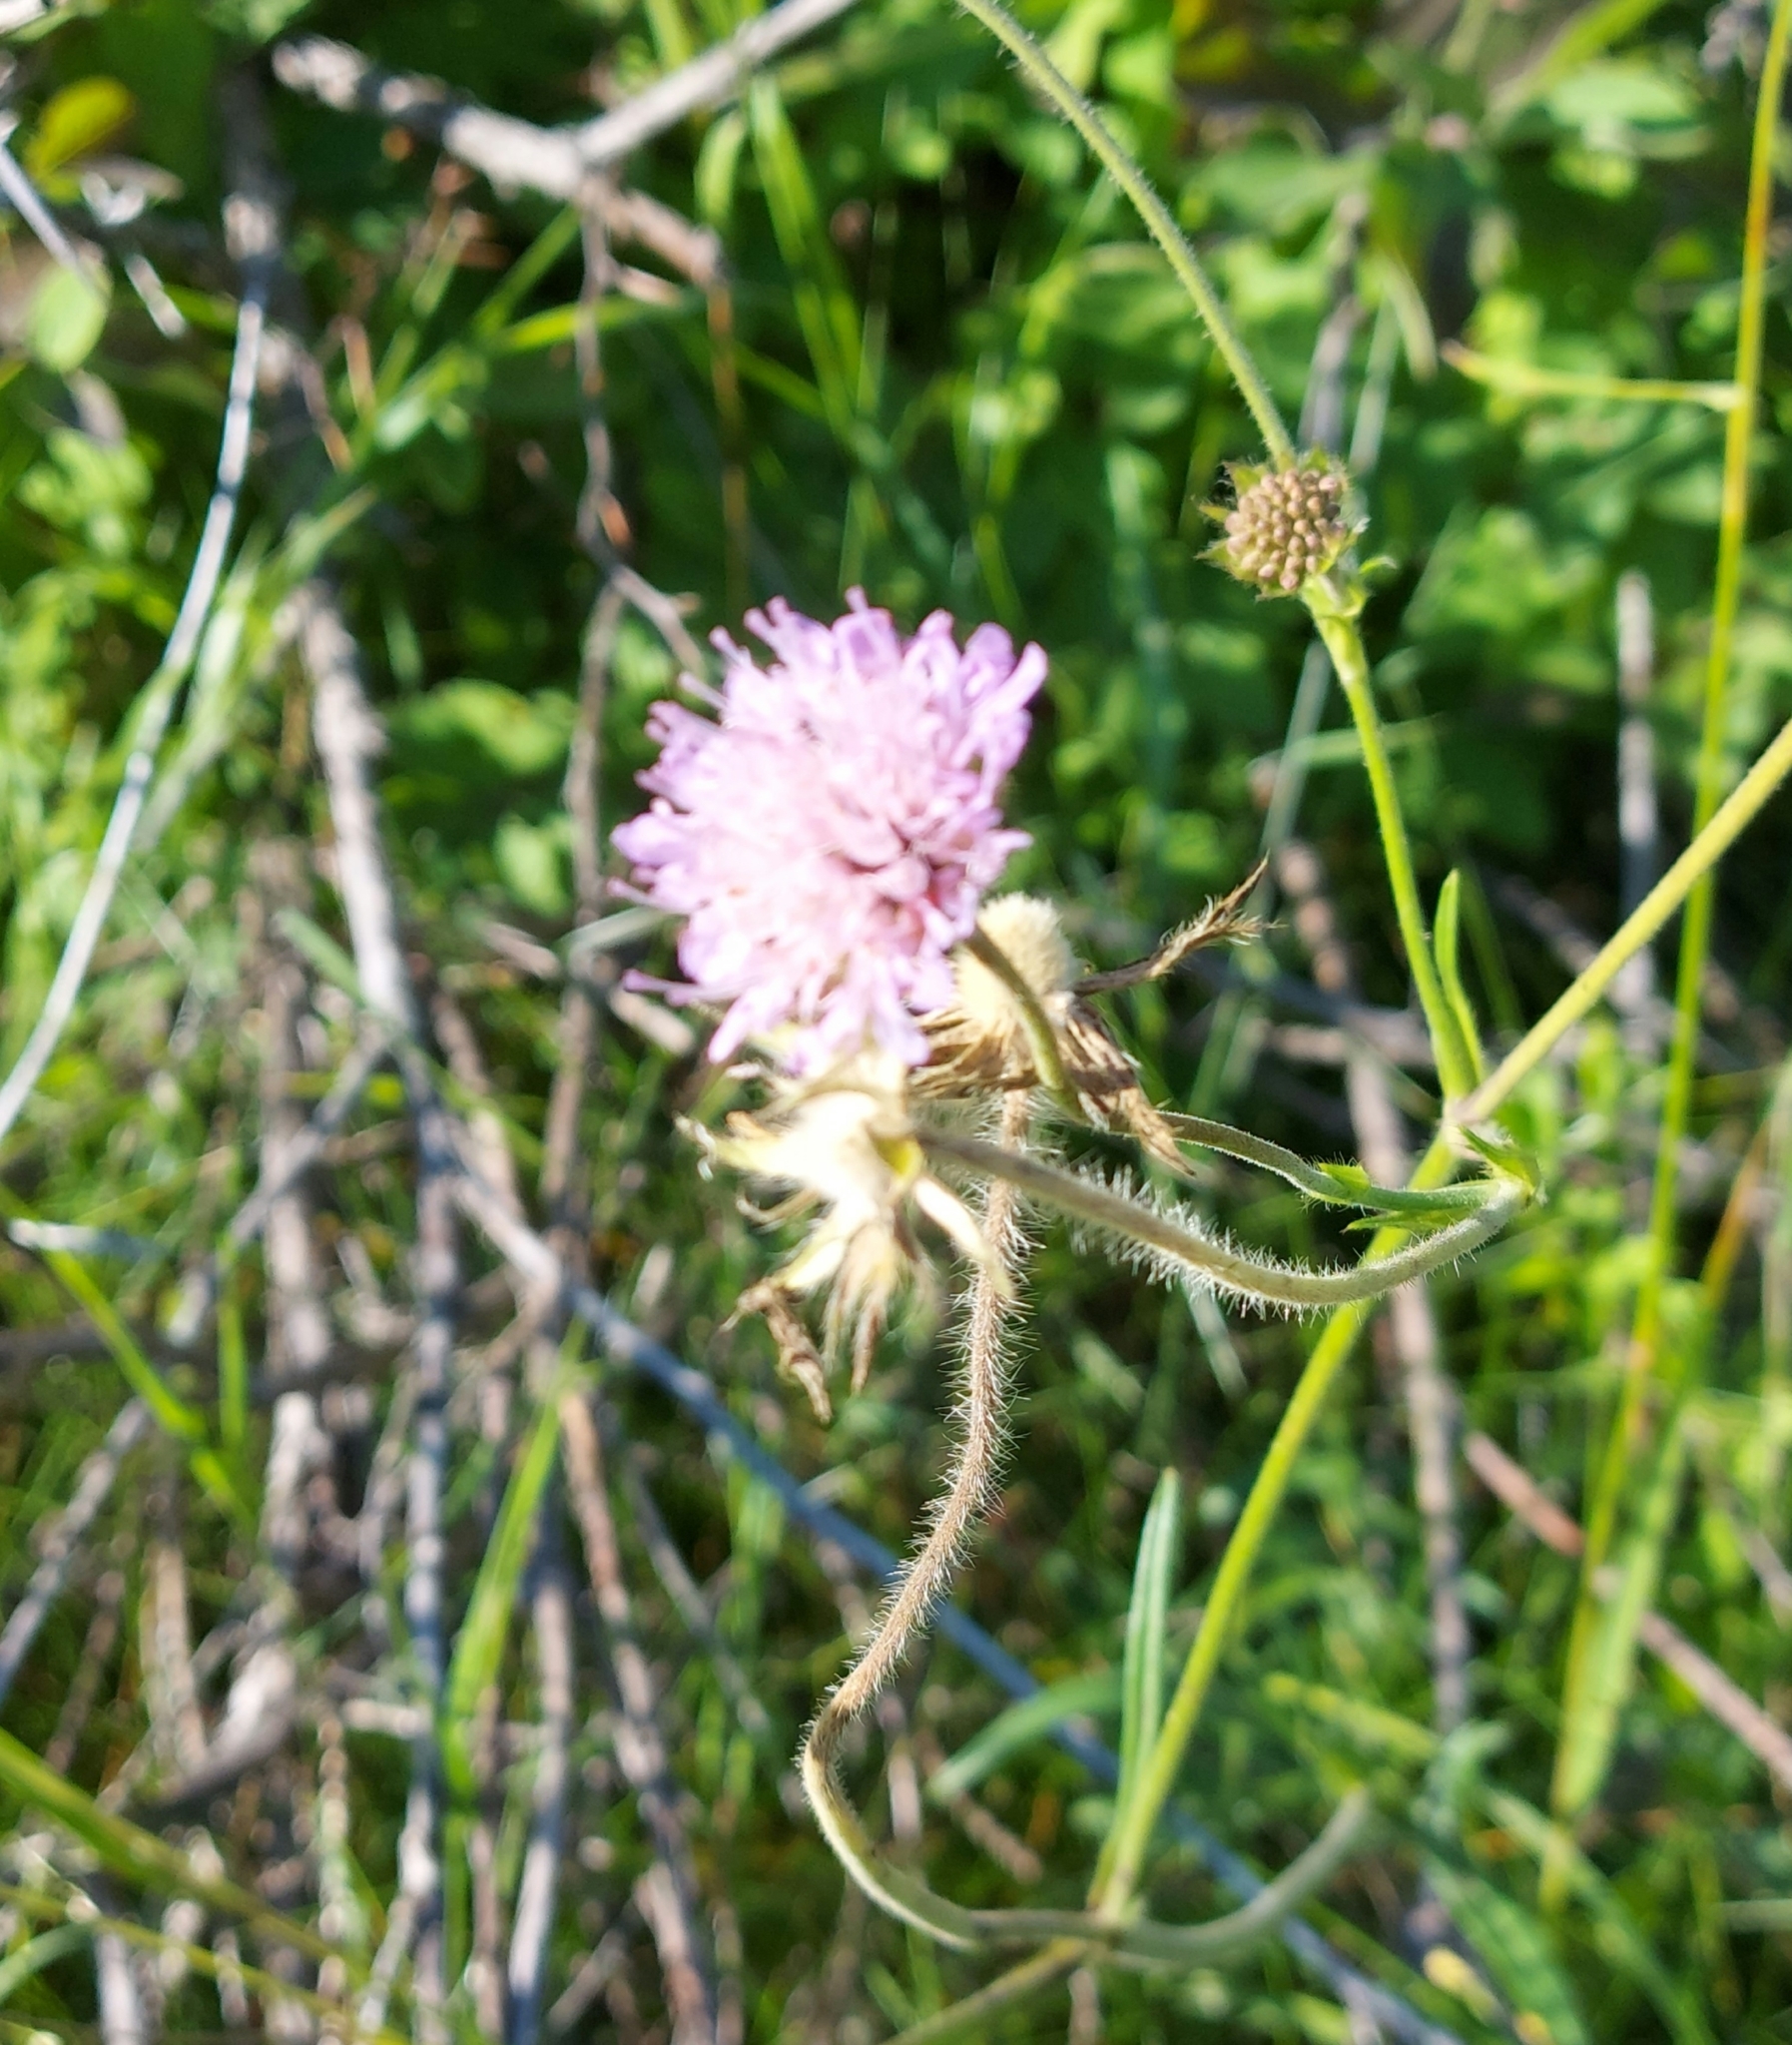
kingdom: Plantae
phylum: Tracheophyta
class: Magnoliopsida
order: Dipsacales
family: Caprifoliaceae
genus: Knautia
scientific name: Knautia arvensis
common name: Field scabiosa
